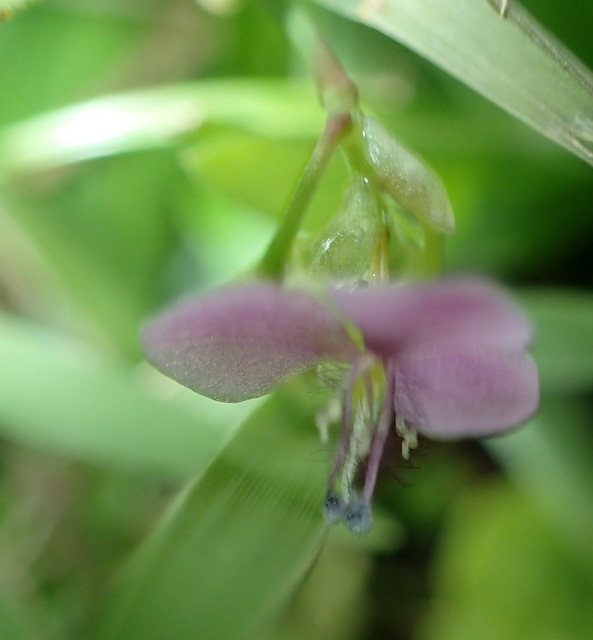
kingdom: Plantae
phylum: Tracheophyta
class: Liliopsida
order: Commelinales
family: Commelinaceae
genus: Murdannia
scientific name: Murdannia nudiflora
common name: Nakedstem dewflower
